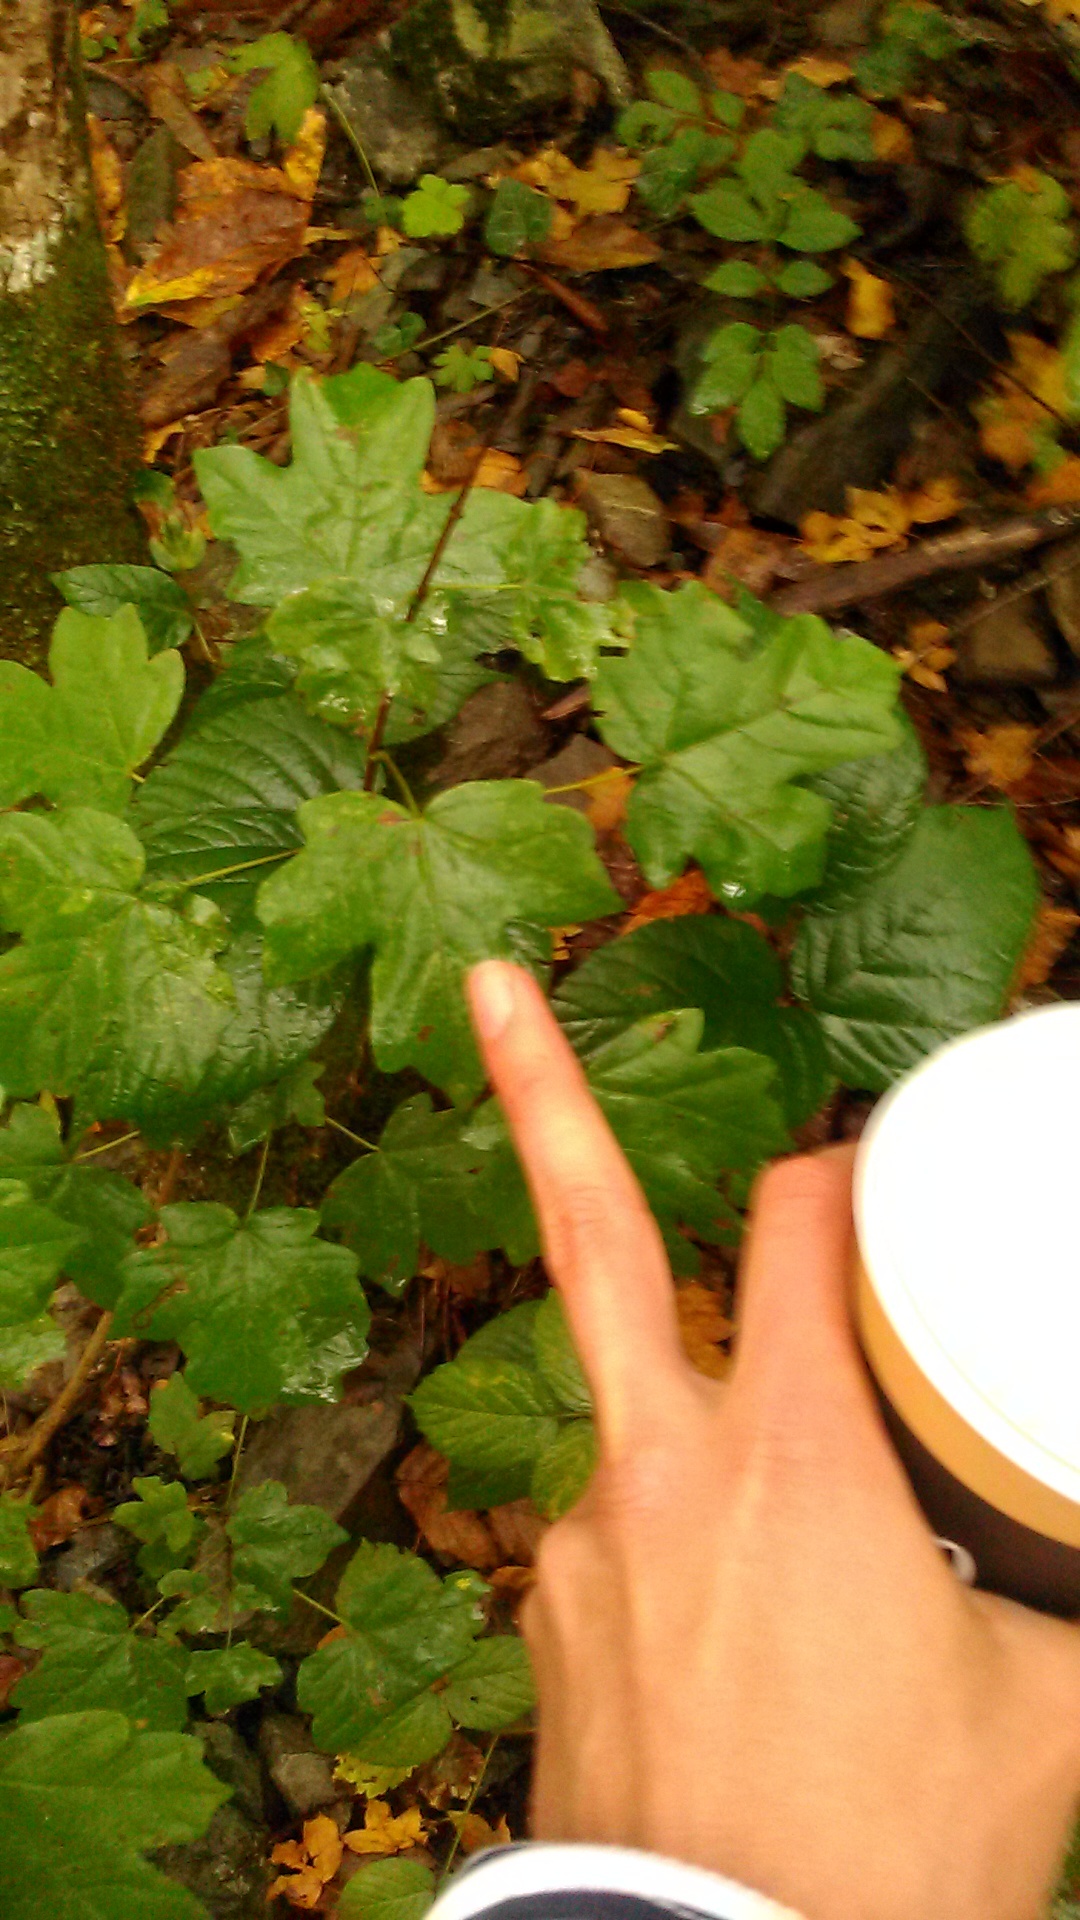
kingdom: Plantae
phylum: Tracheophyta
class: Magnoliopsida
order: Sapindales
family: Sapindaceae
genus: Acer
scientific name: Acer campestre
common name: Field maple
